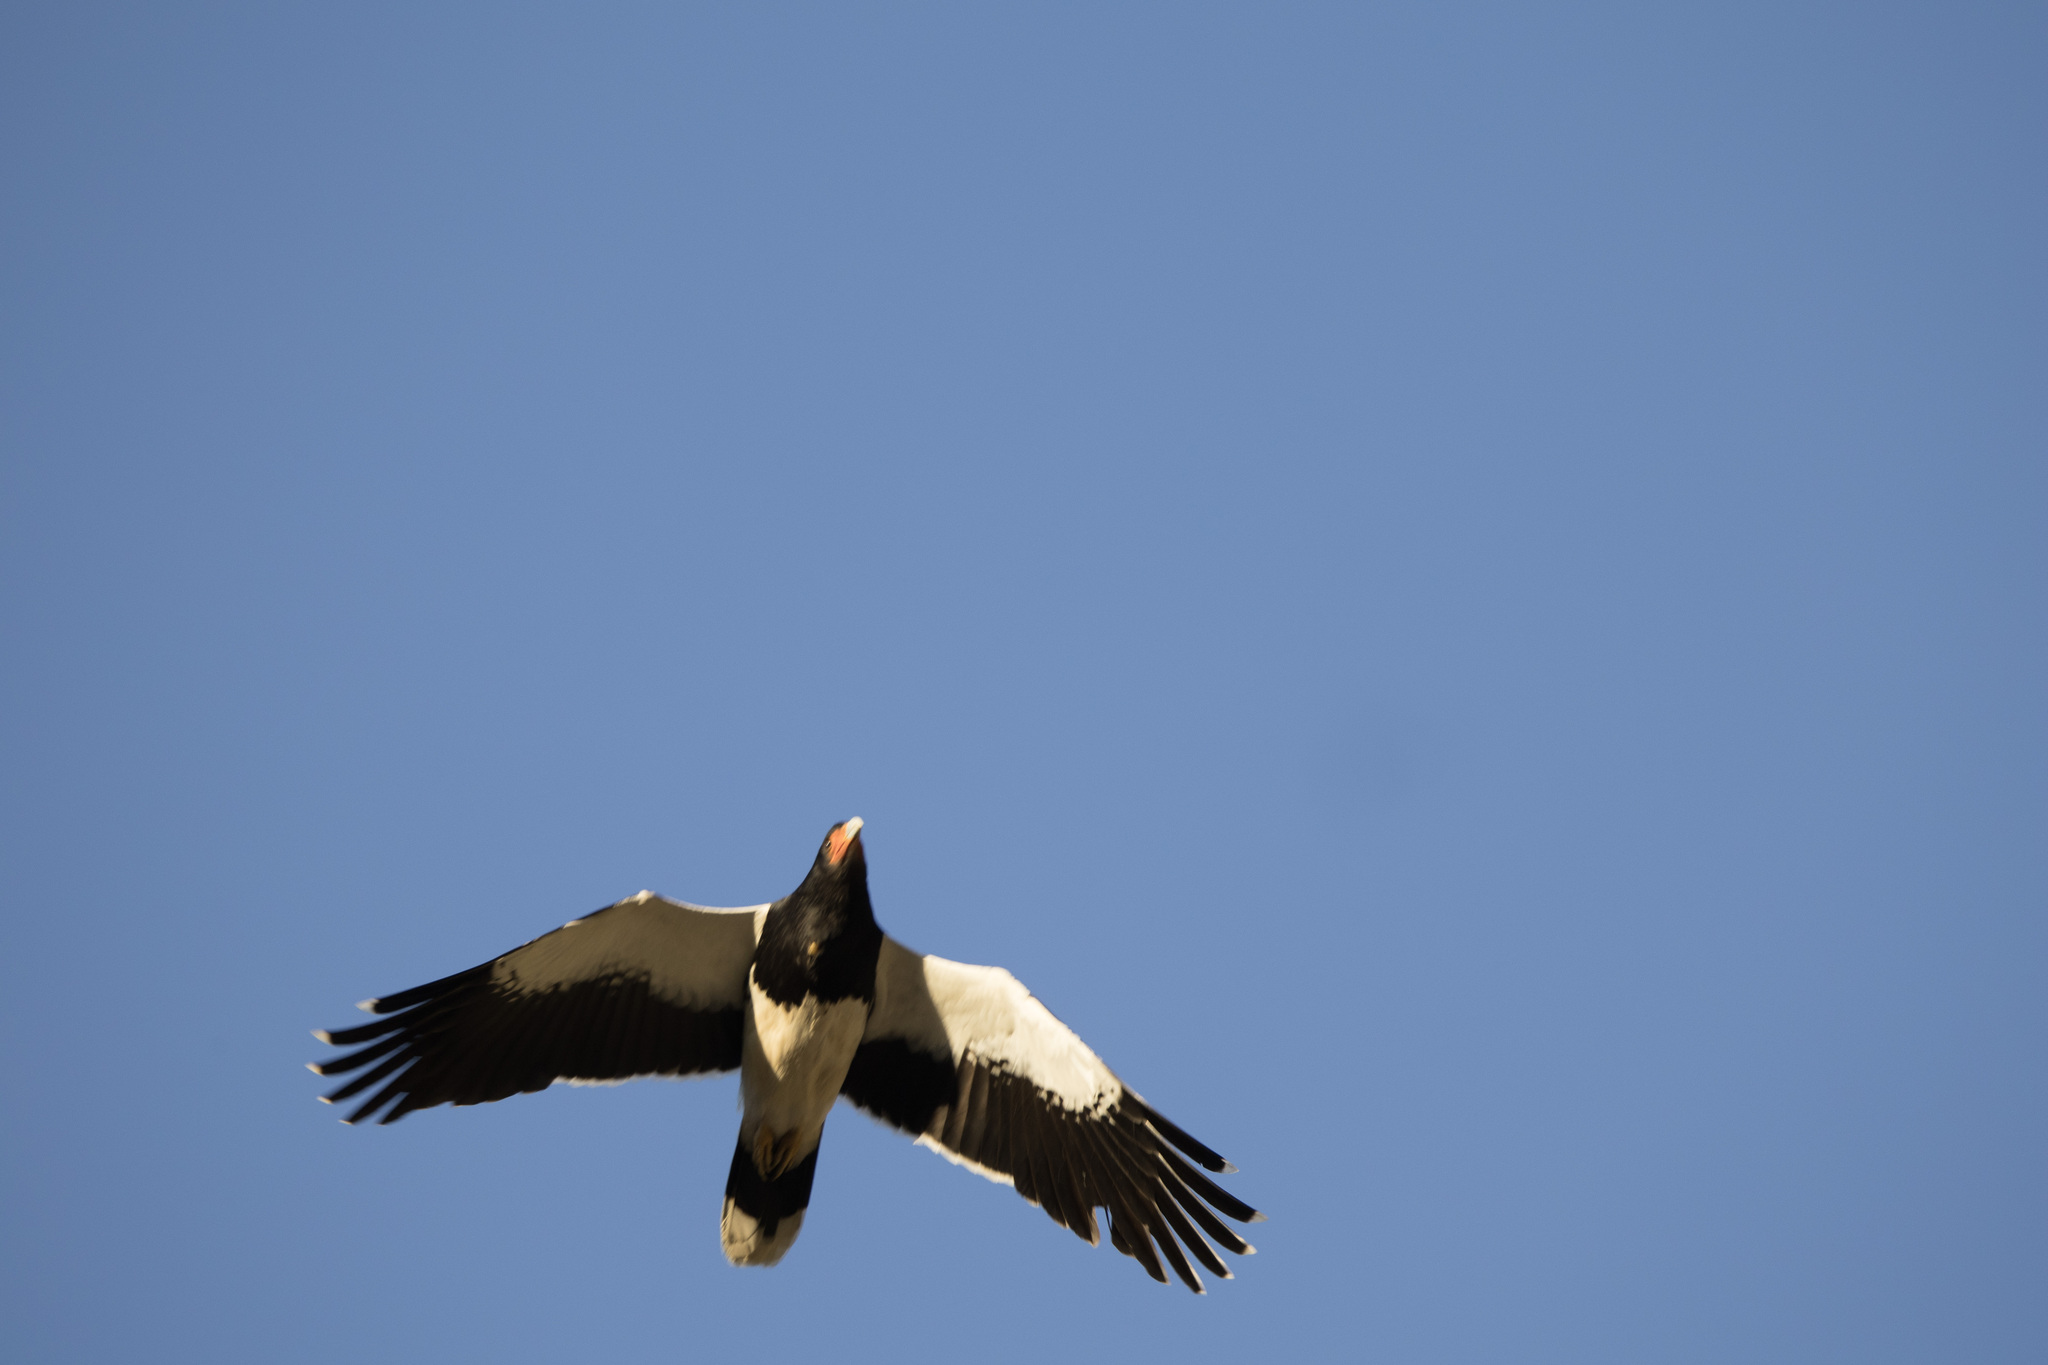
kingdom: Animalia
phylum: Chordata
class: Aves
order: Falconiformes
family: Falconidae
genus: Daptrius
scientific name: Daptrius
